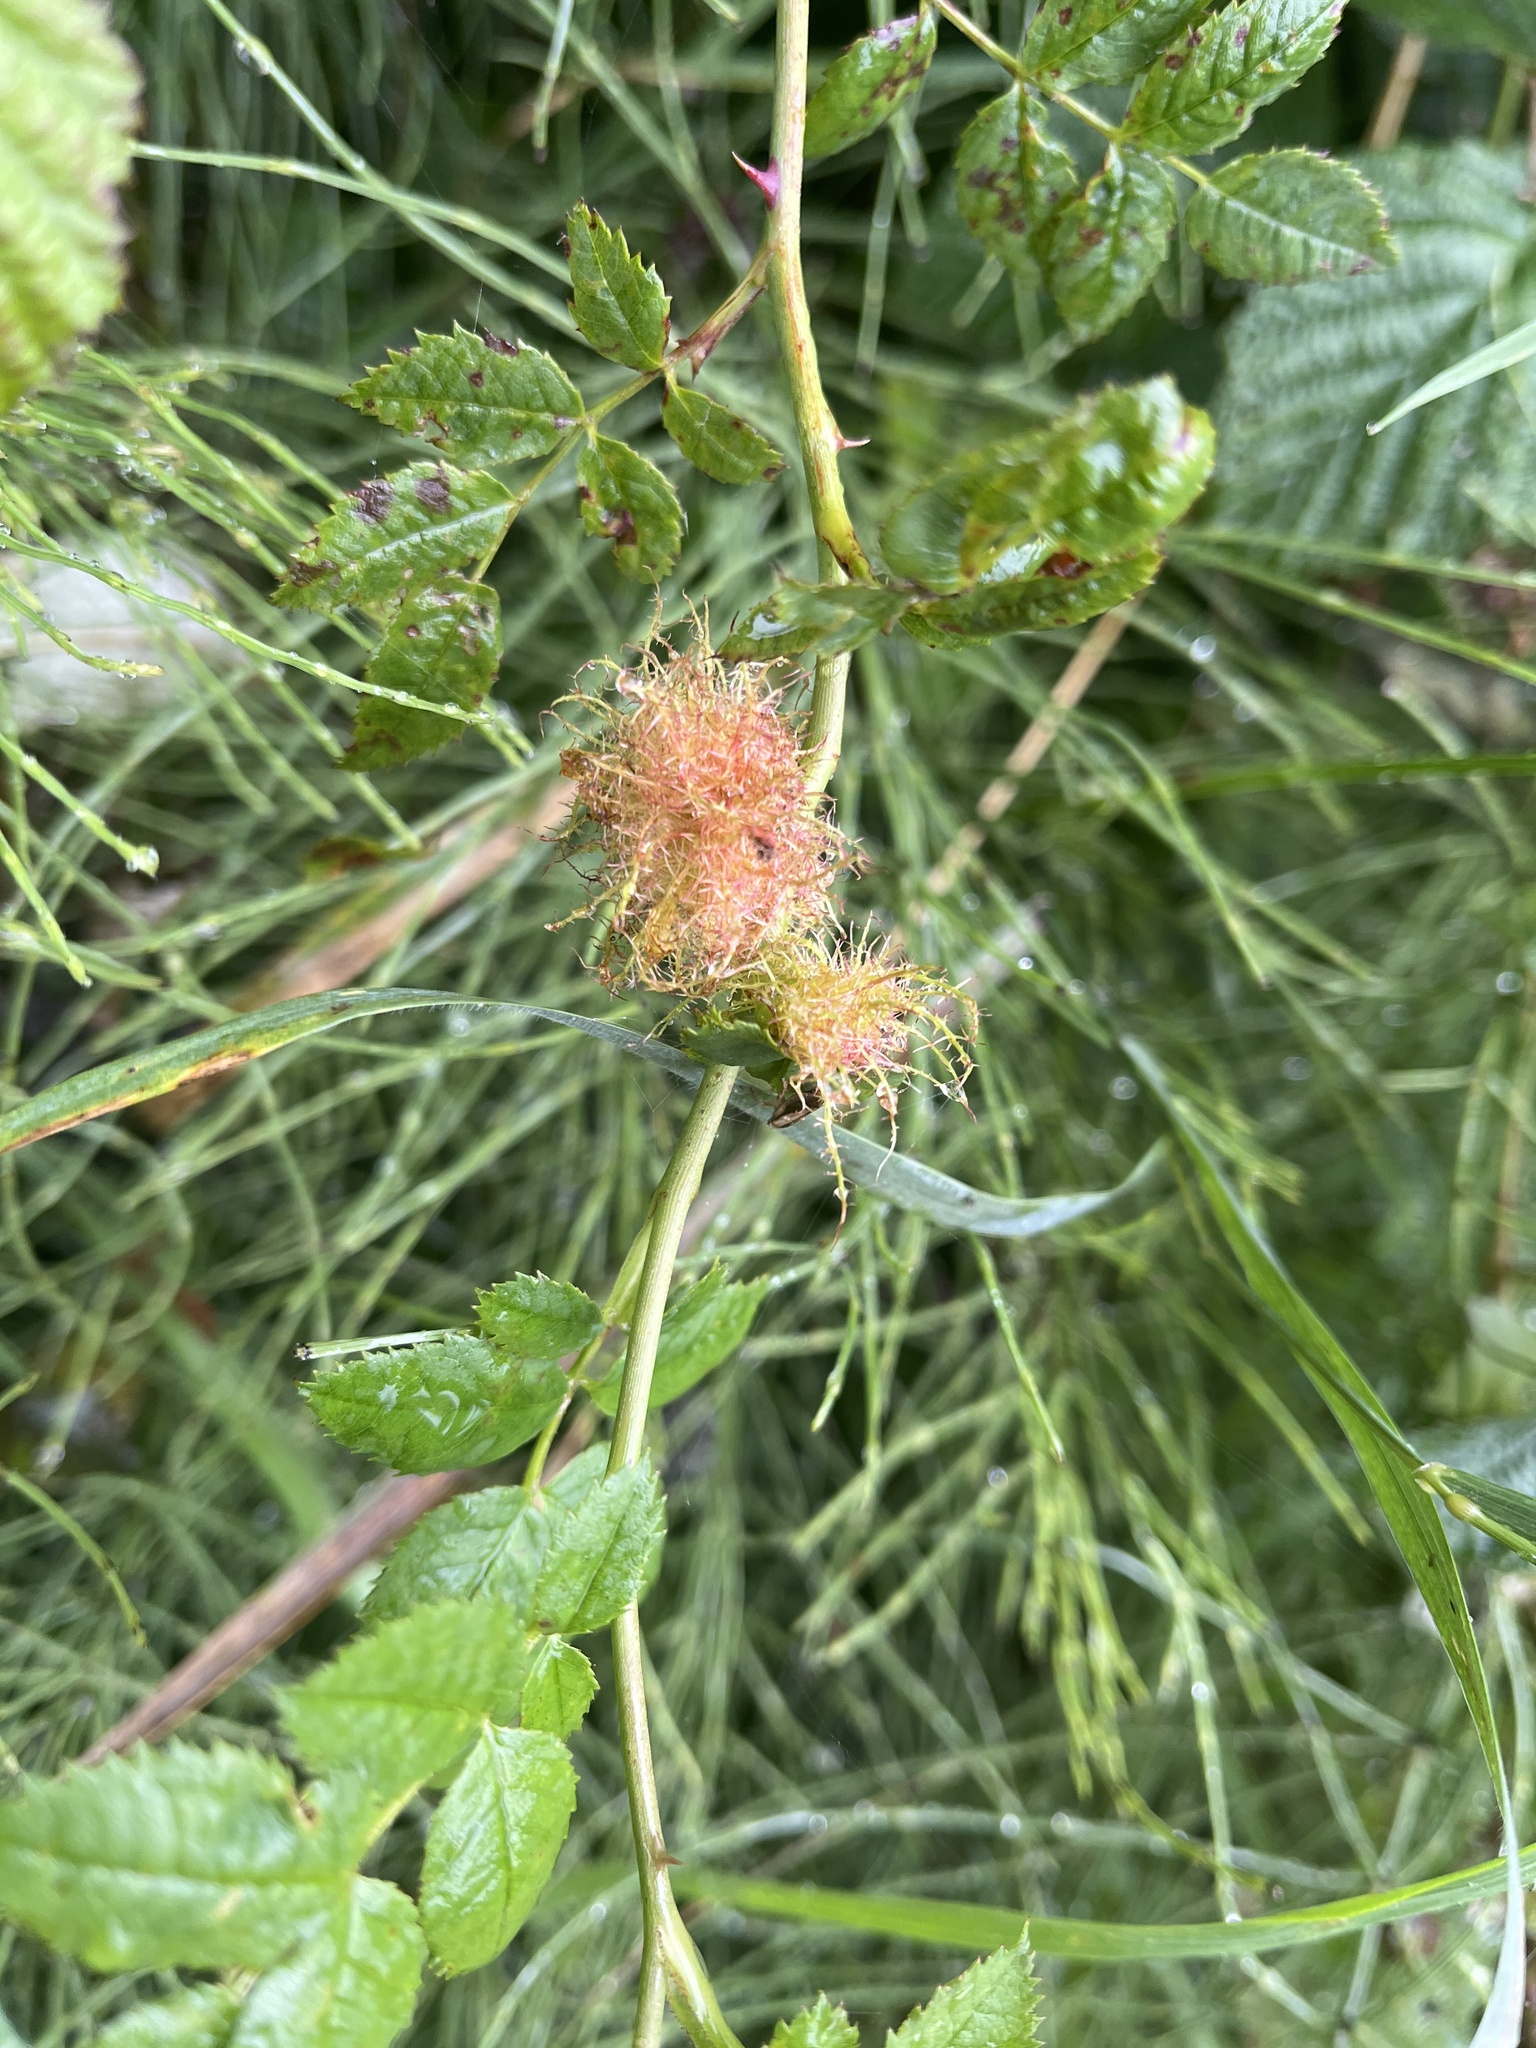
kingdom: Animalia
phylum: Arthropoda
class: Insecta
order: Hymenoptera
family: Cynipidae
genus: Diplolepis
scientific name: Diplolepis rosae
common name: Bedeguar gall
